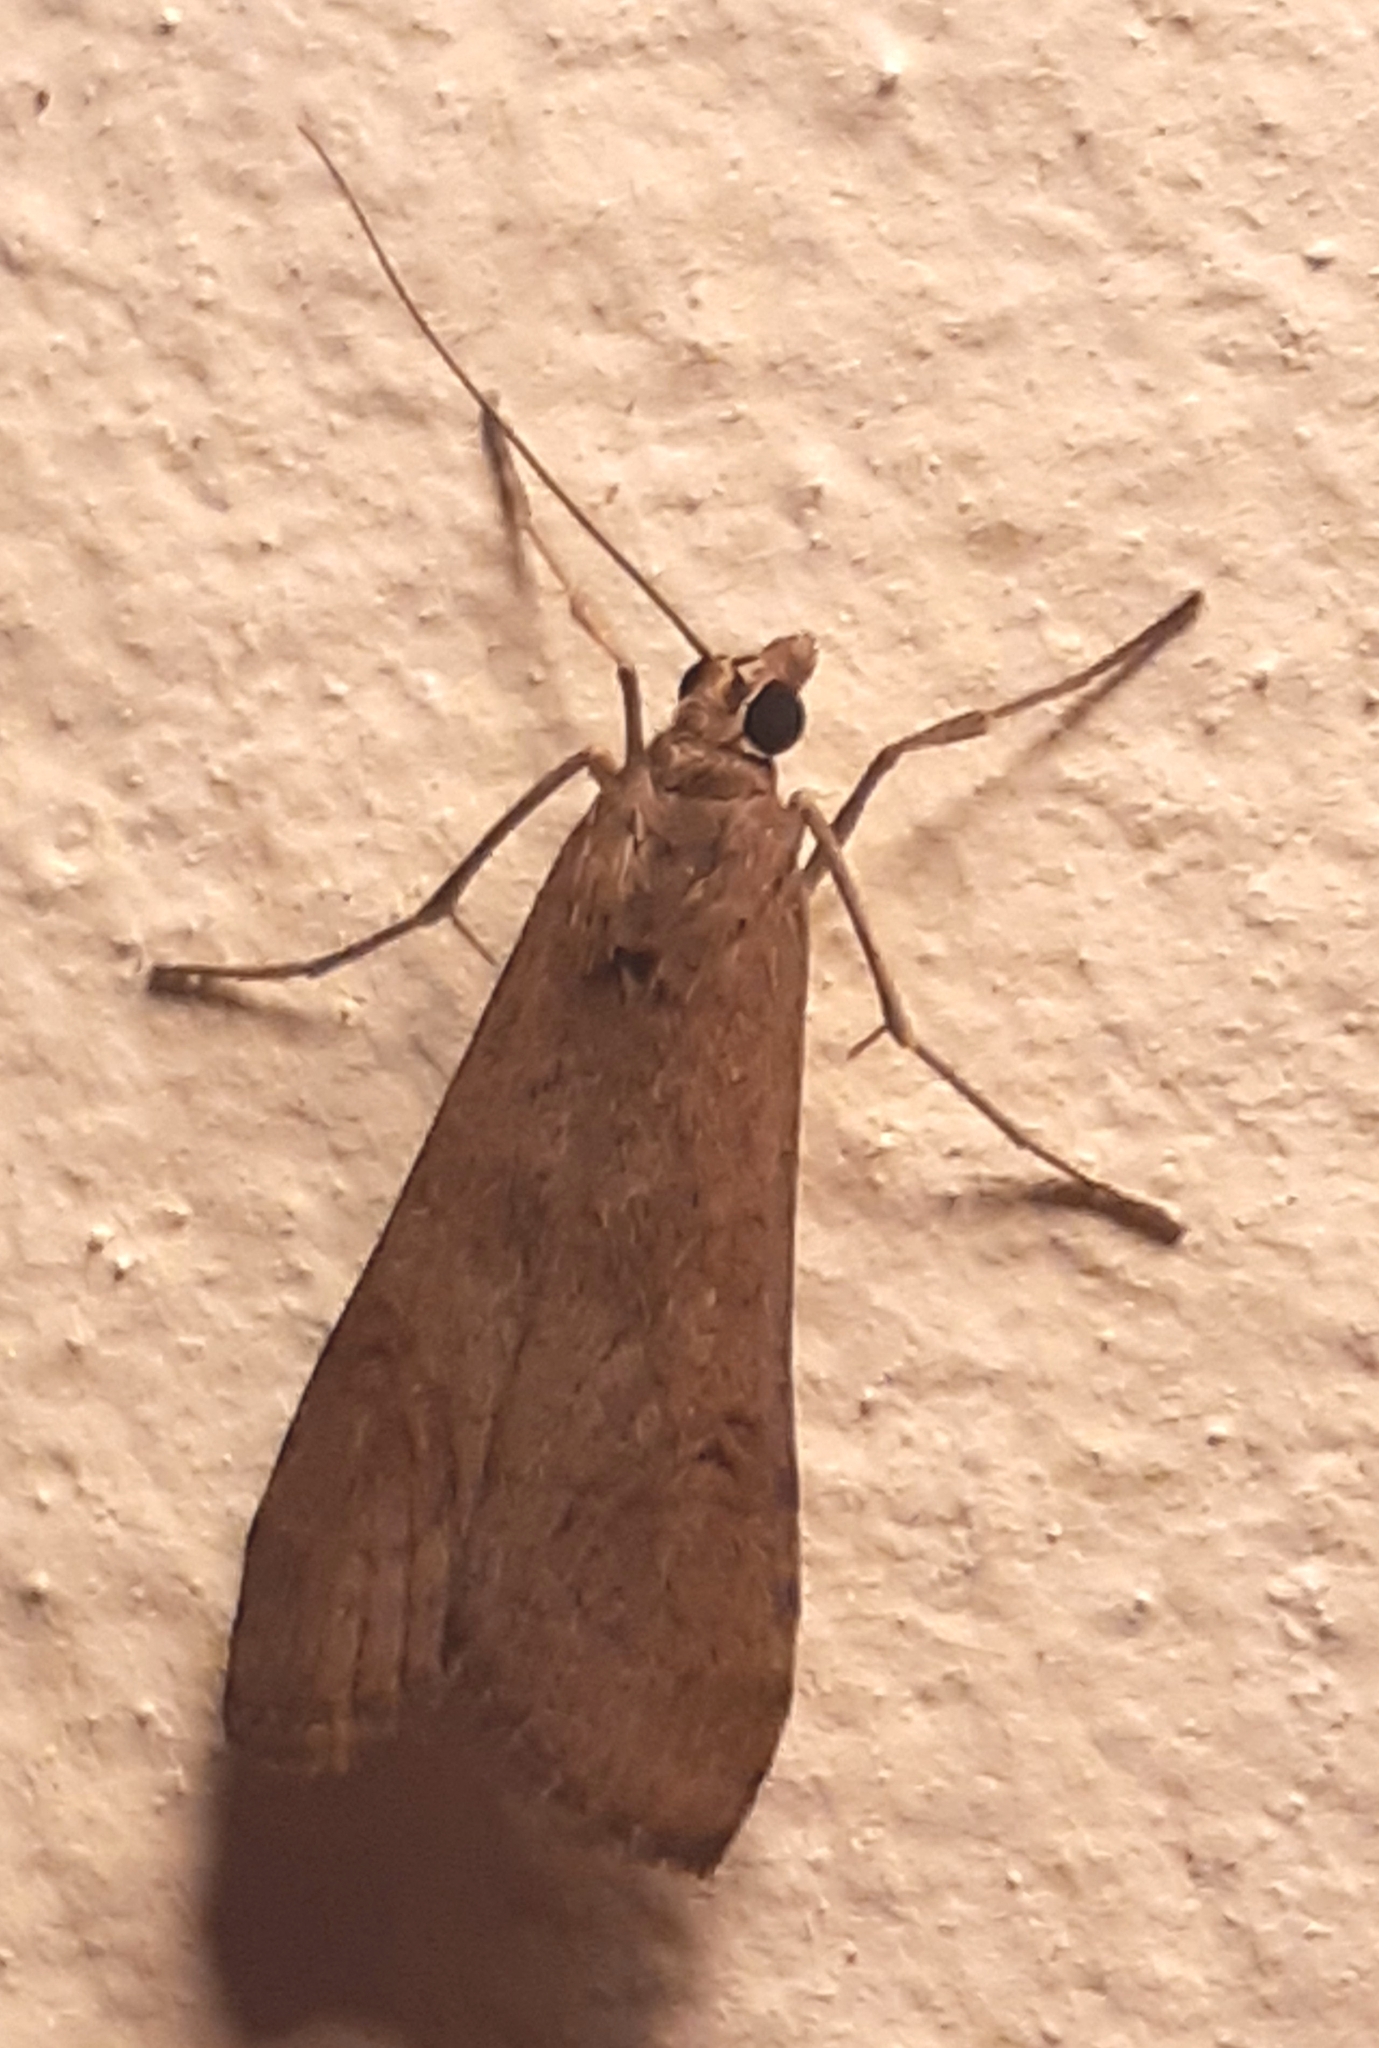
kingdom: Animalia
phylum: Arthropoda
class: Insecta
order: Lepidoptera
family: Crambidae
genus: Nomophila
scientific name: Nomophila noctuella
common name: Rush veneer
